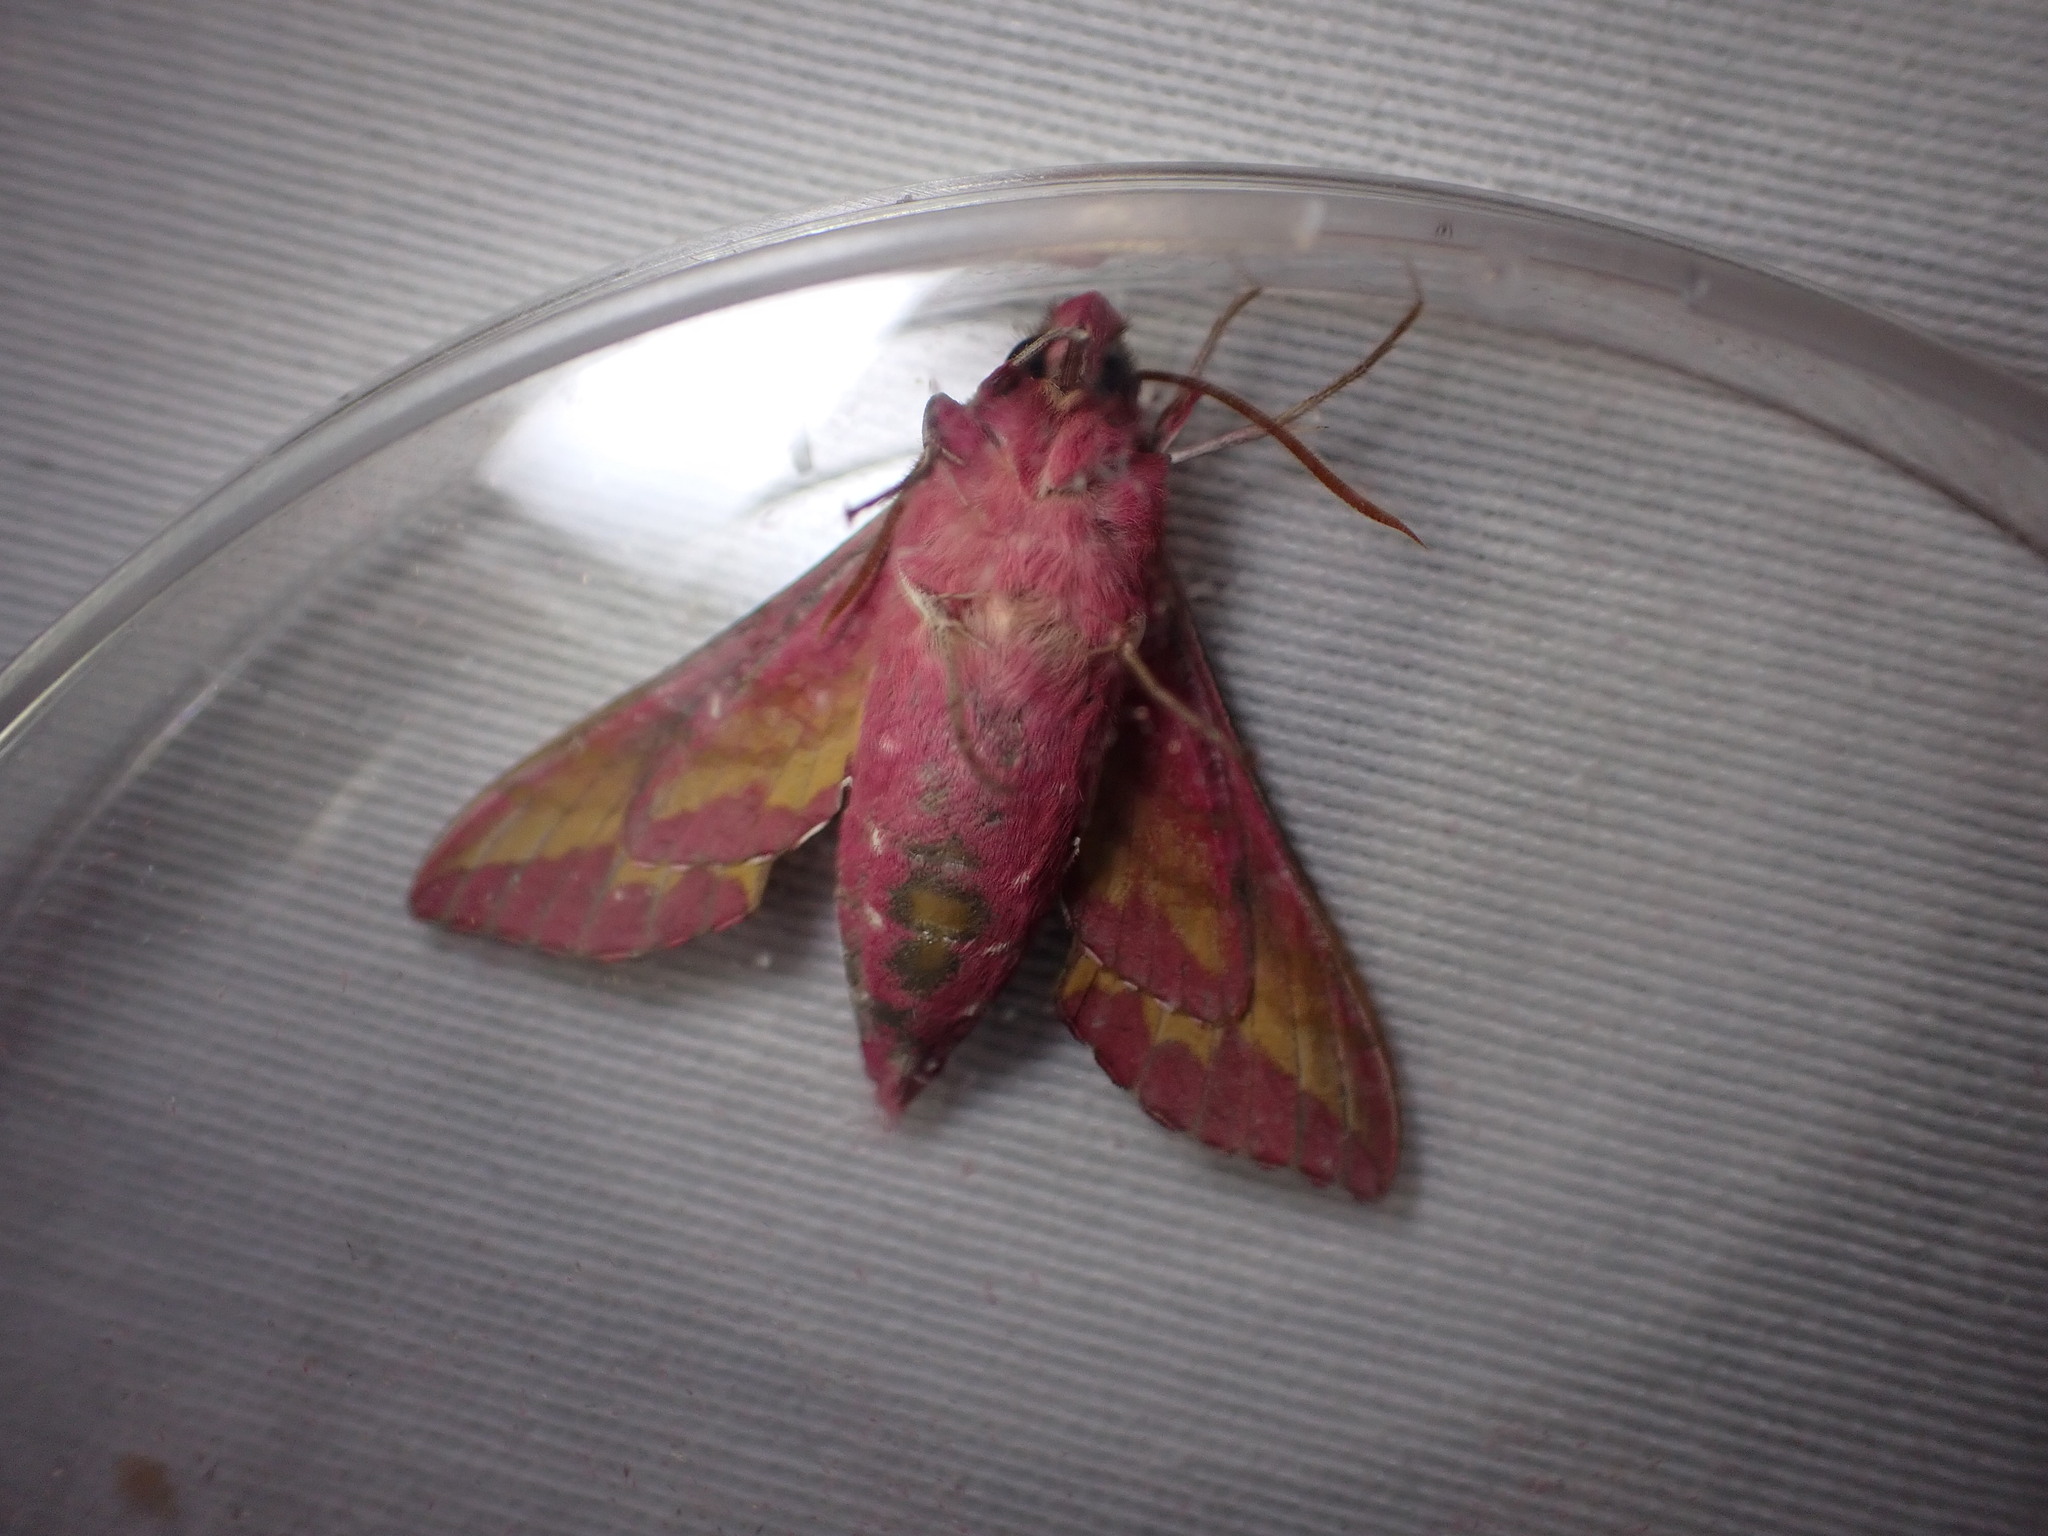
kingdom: Animalia
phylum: Arthropoda
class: Insecta
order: Lepidoptera
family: Sphingidae
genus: Deilephila
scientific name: Deilephila porcellus
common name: Small elephant hawk-moth
